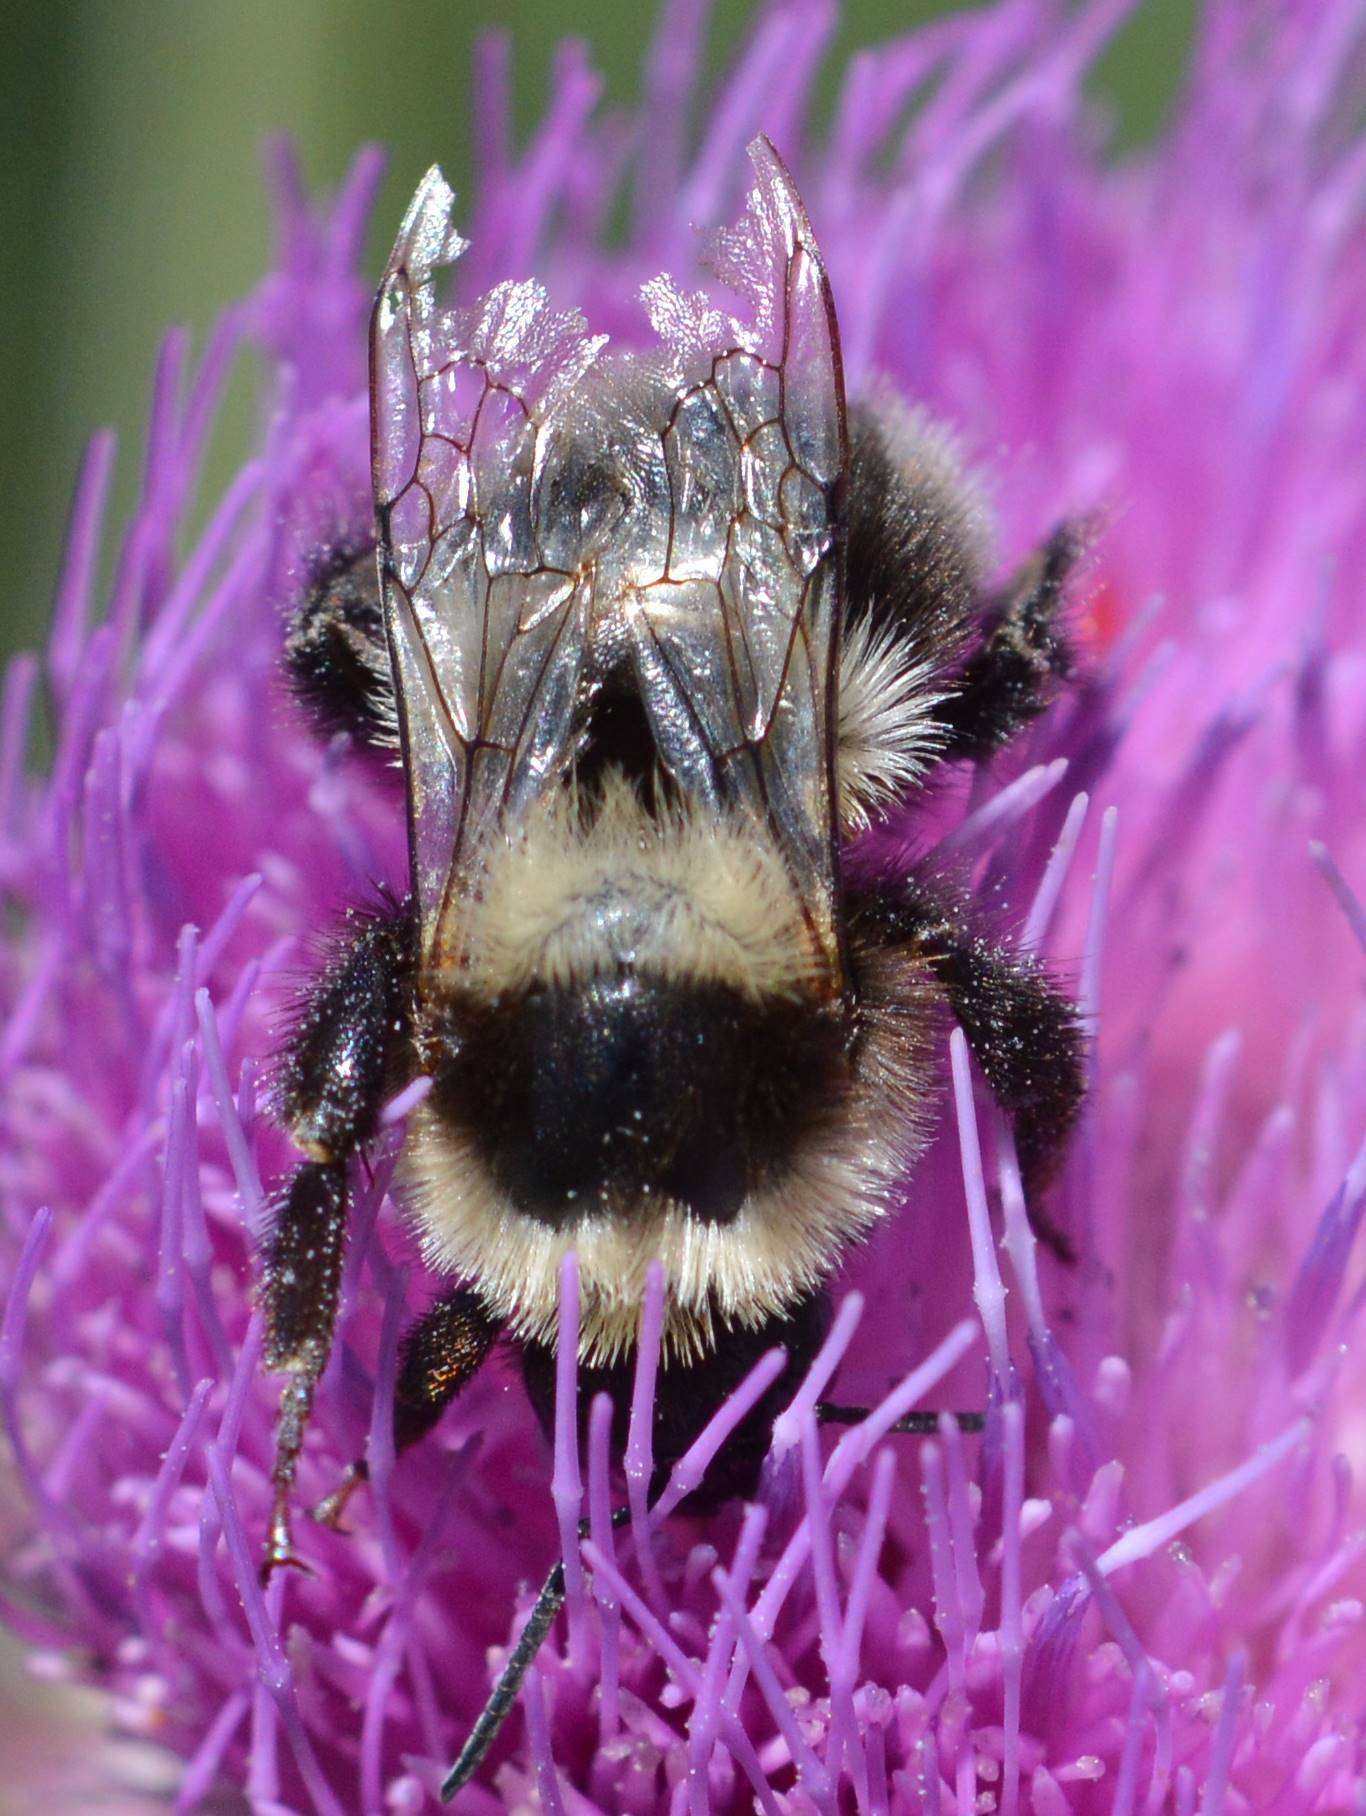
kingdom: Animalia
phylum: Arthropoda
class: Insecta
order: Hymenoptera
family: Apidae
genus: Bombus
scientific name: Bombus ruderatus
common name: Large garden bumblebee
